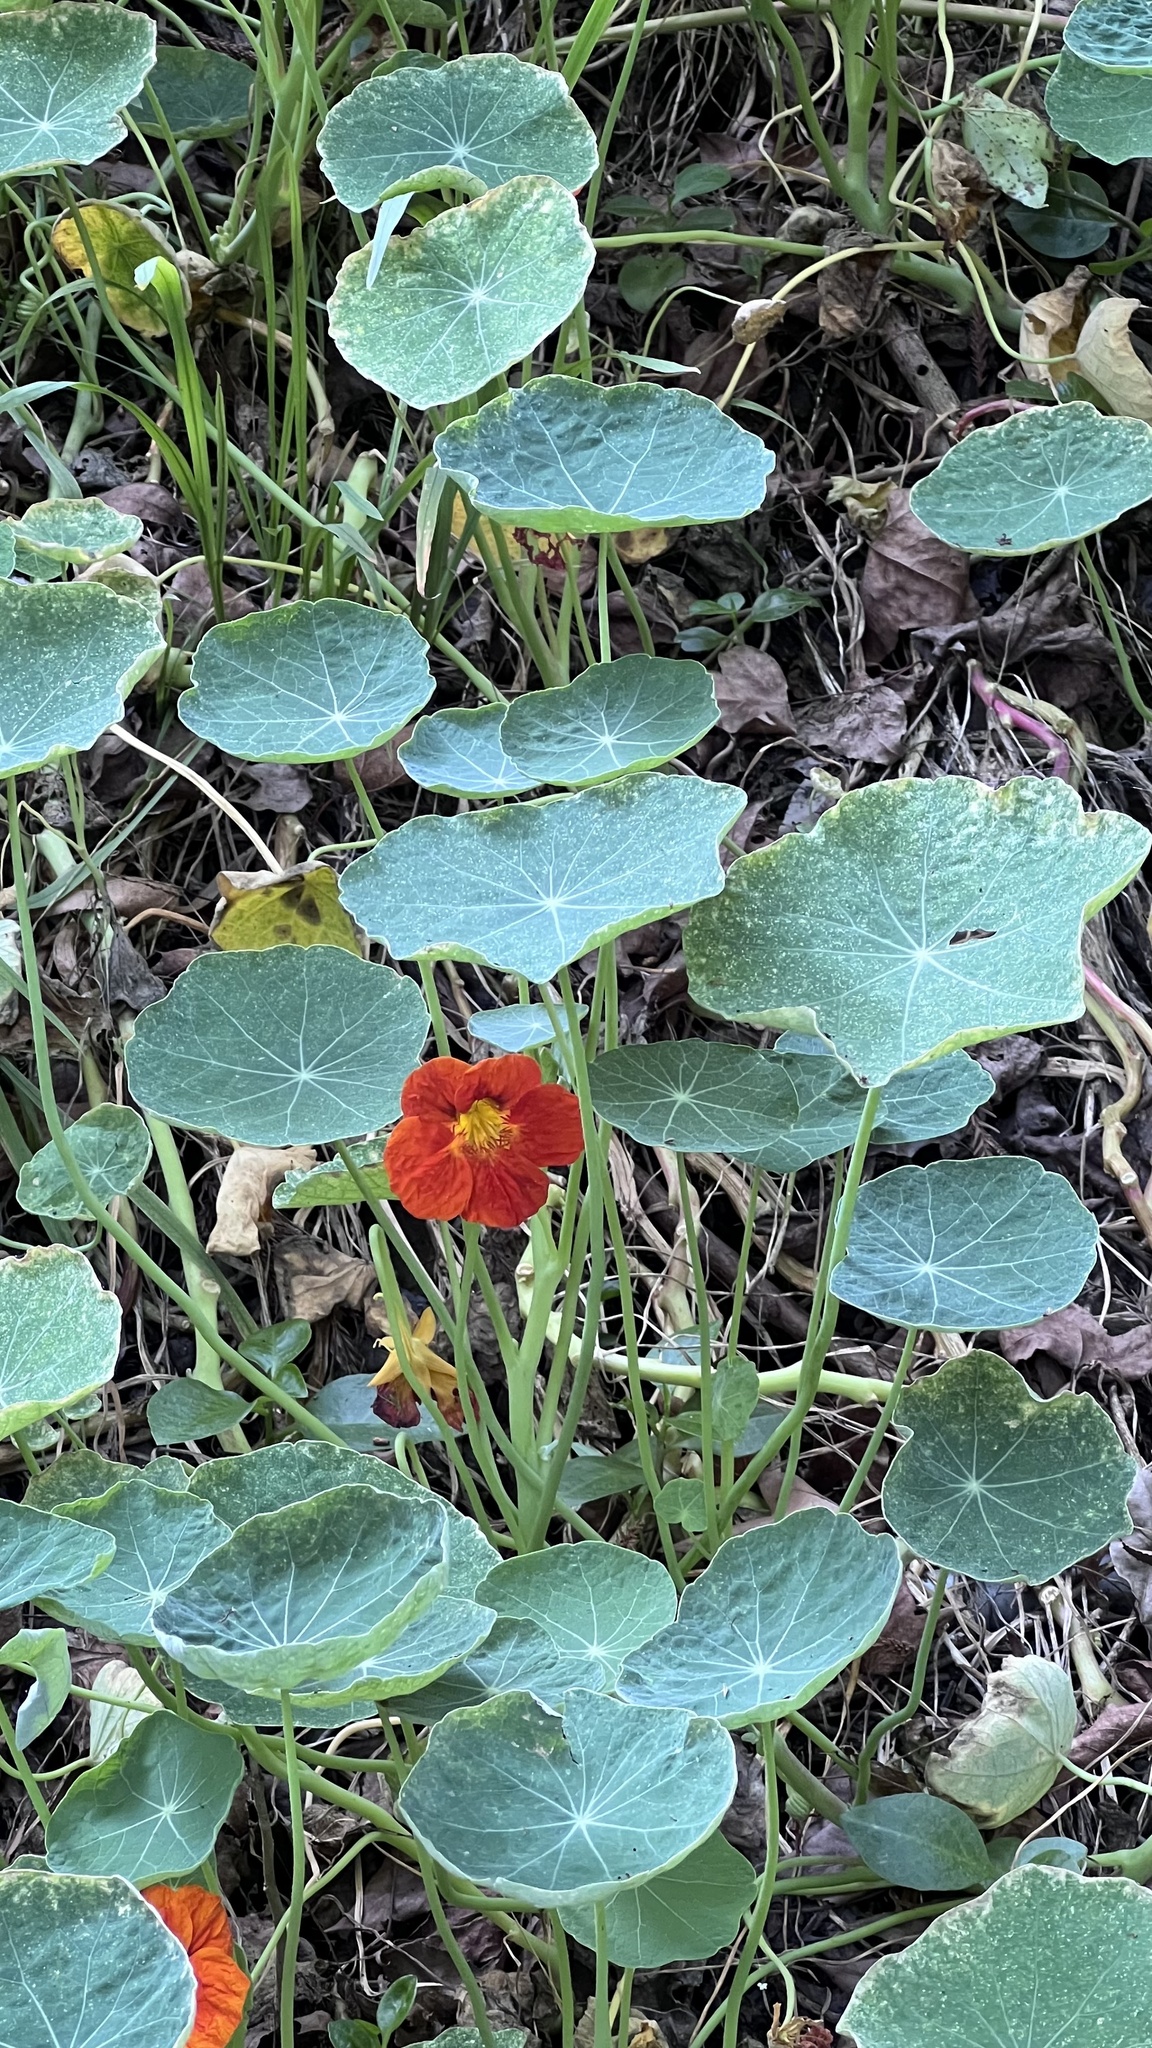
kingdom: Plantae
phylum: Tracheophyta
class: Magnoliopsida
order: Brassicales
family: Tropaeolaceae
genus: Tropaeolum
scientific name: Tropaeolum majus
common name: Nasturtium
